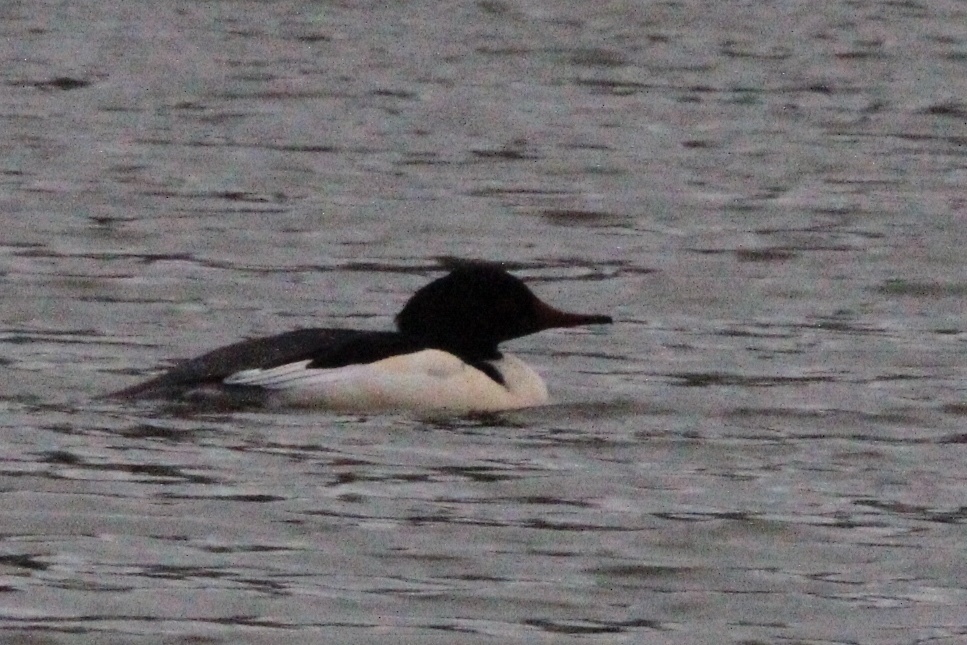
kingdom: Animalia
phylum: Chordata
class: Aves
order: Anseriformes
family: Anatidae
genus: Mergus
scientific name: Mergus merganser
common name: Common merganser
